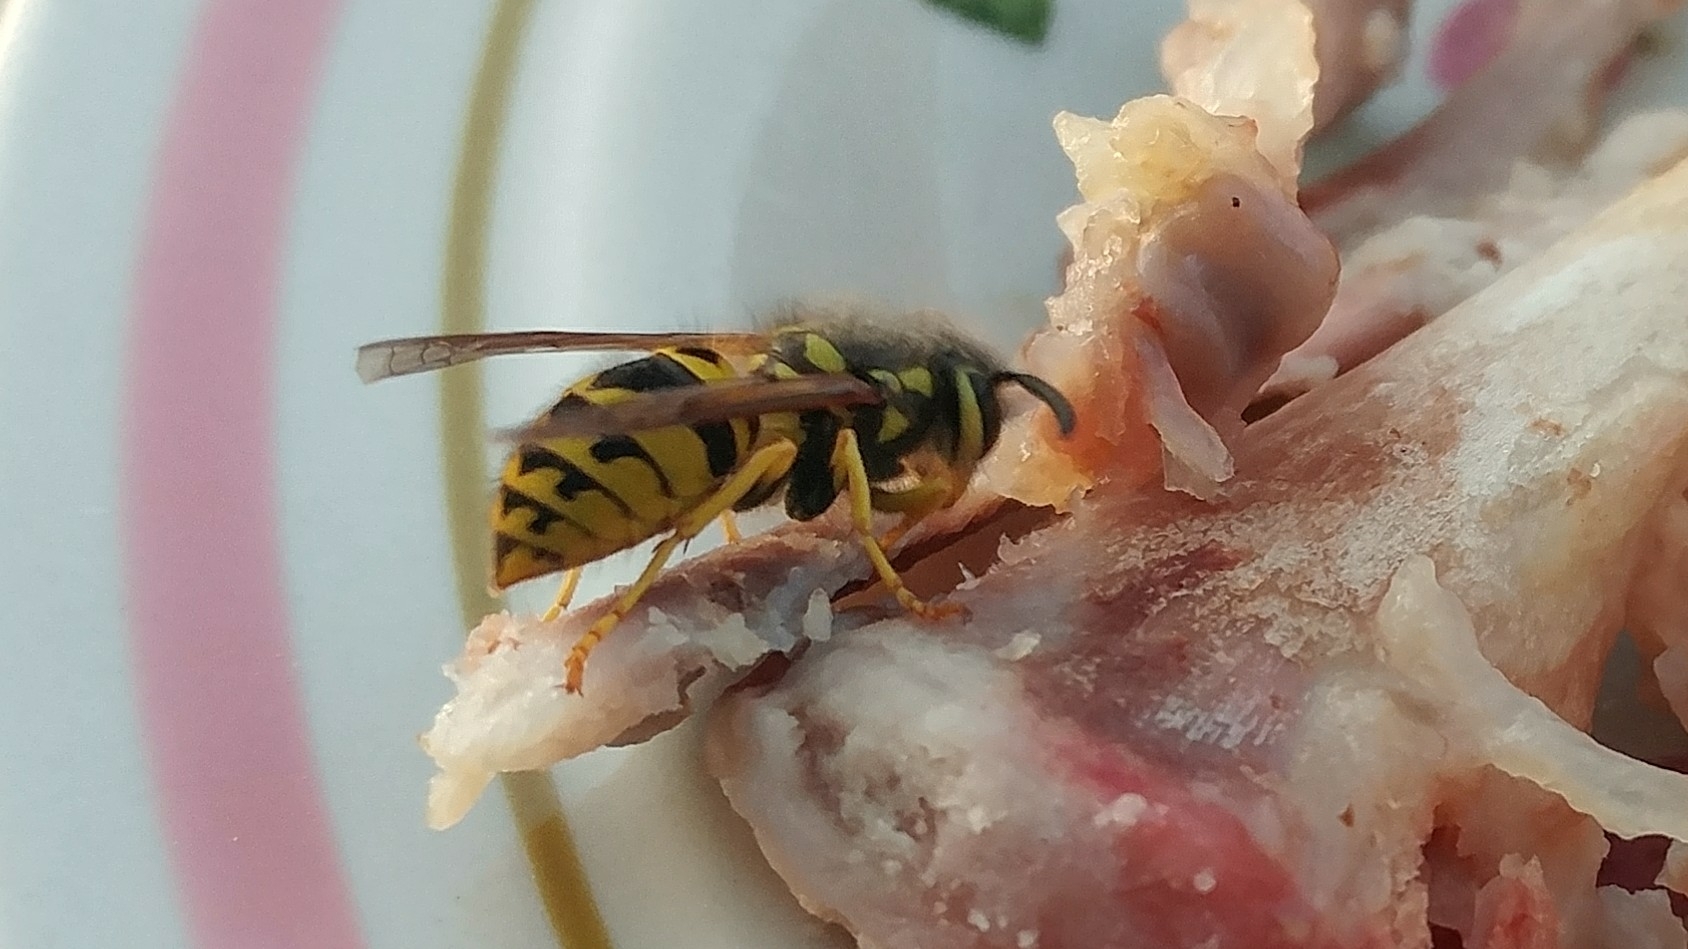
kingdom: Animalia
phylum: Arthropoda
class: Insecta
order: Hymenoptera
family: Vespidae
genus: Vespula
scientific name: Vespula pensylvanica
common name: Western yellowjacket
